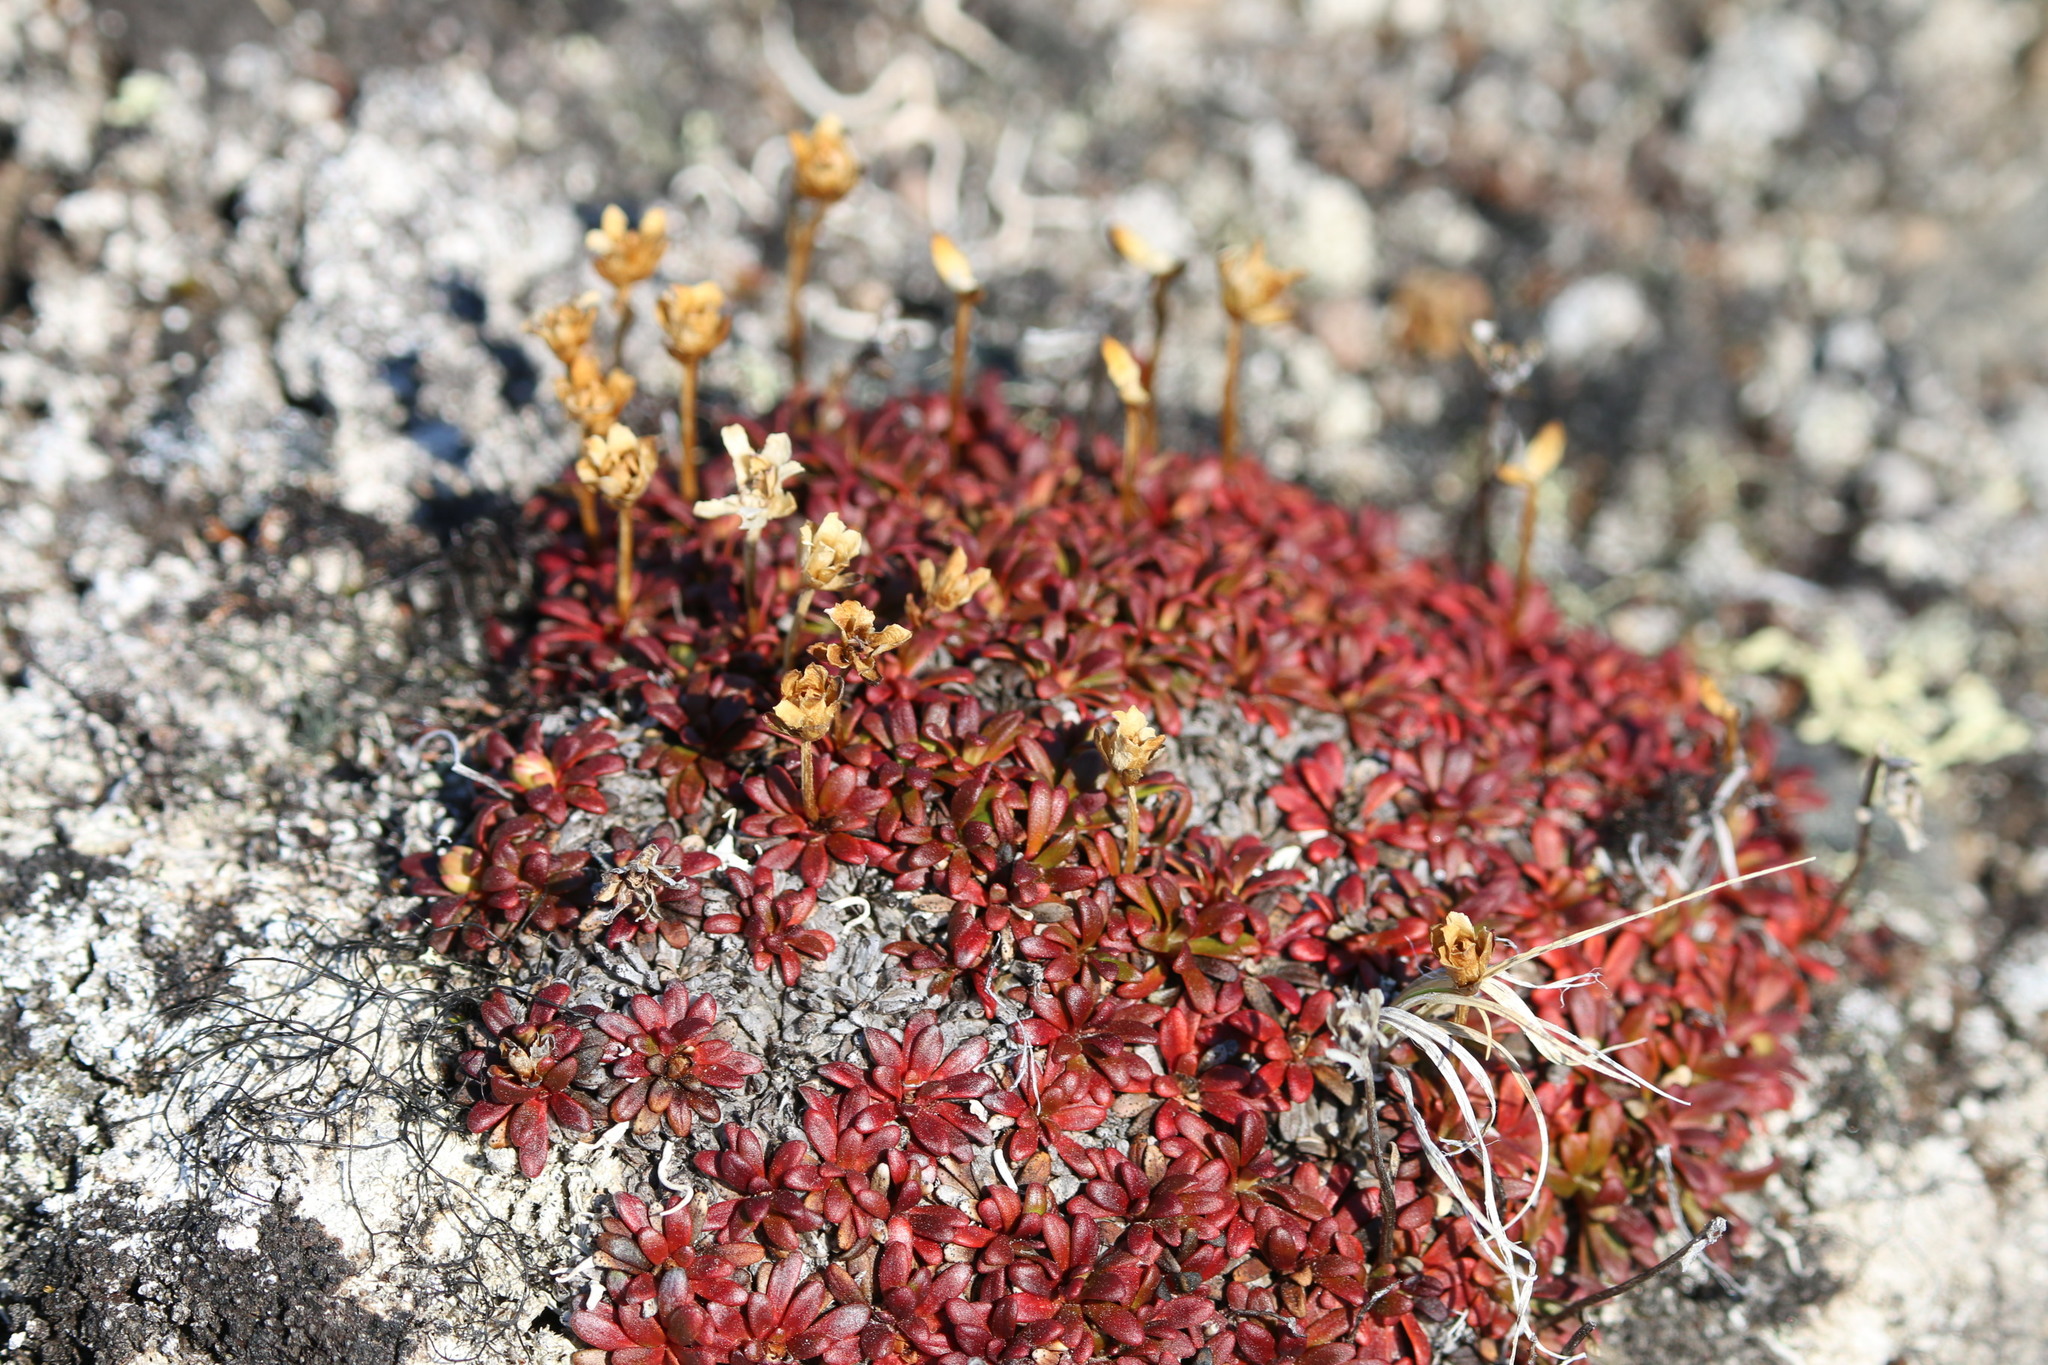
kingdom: Plantae
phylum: Tracheophyta
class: Magnoliopsida
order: Ericales
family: Diapensiaceae
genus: Diapensia
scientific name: Diapensia lapponica
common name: Diapensia
